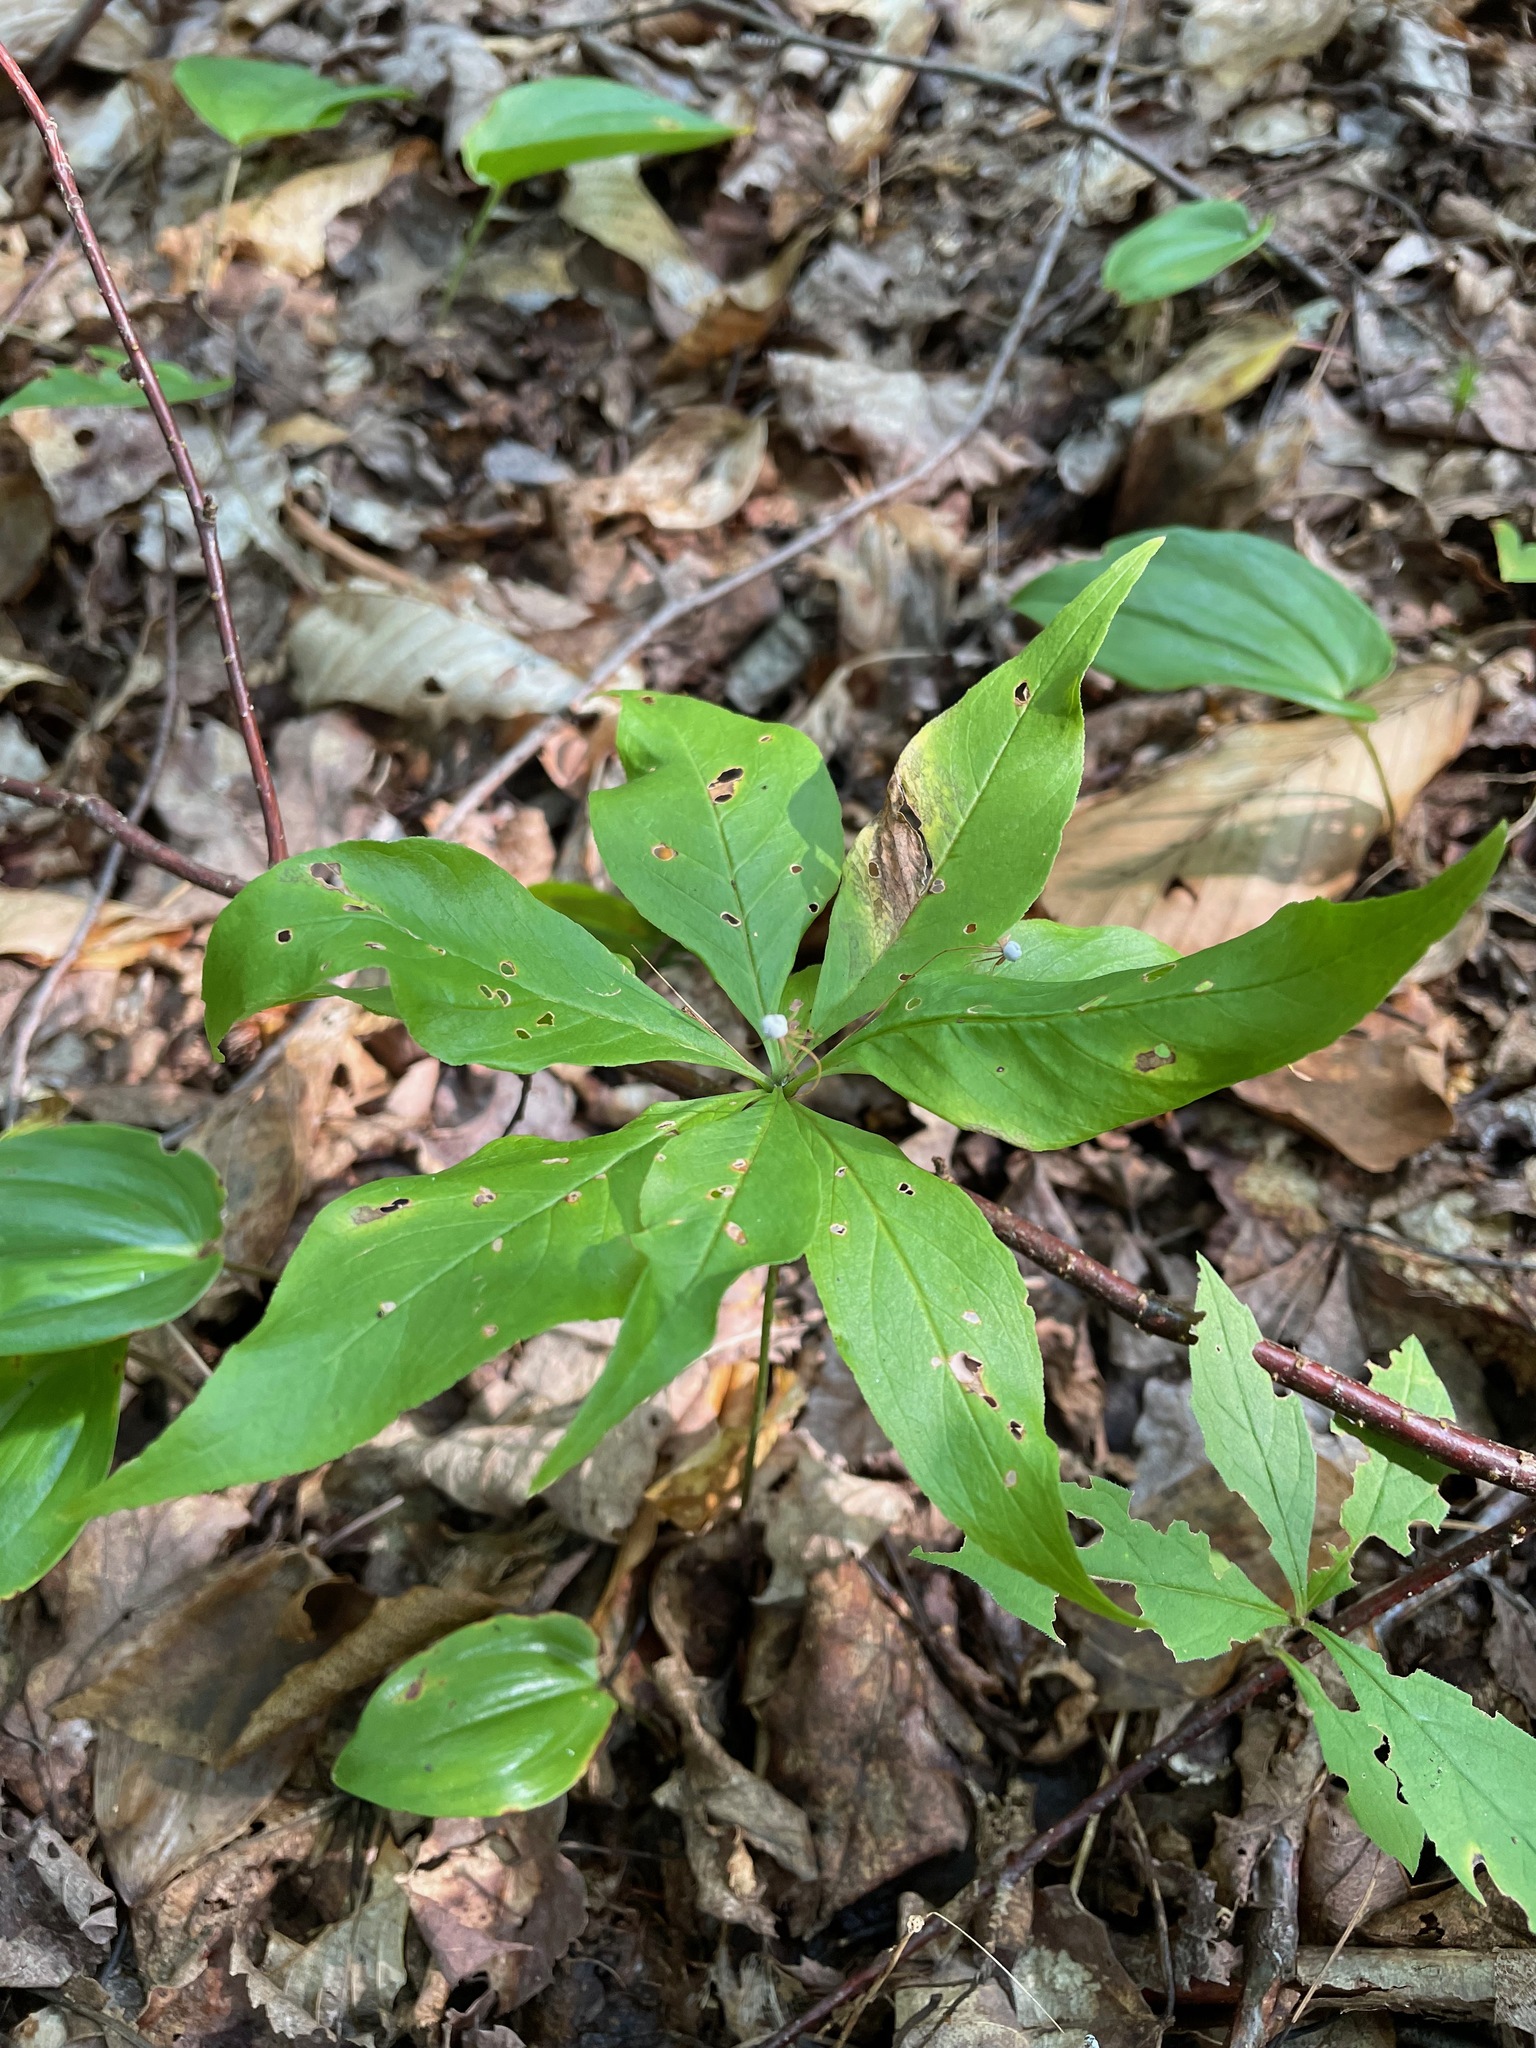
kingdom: Plantae
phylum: Tracheophyta
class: Magnoliopsida
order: Ericales
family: Primulaceae
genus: Lysimachia
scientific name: Lysimachia borealis
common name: American starflower
